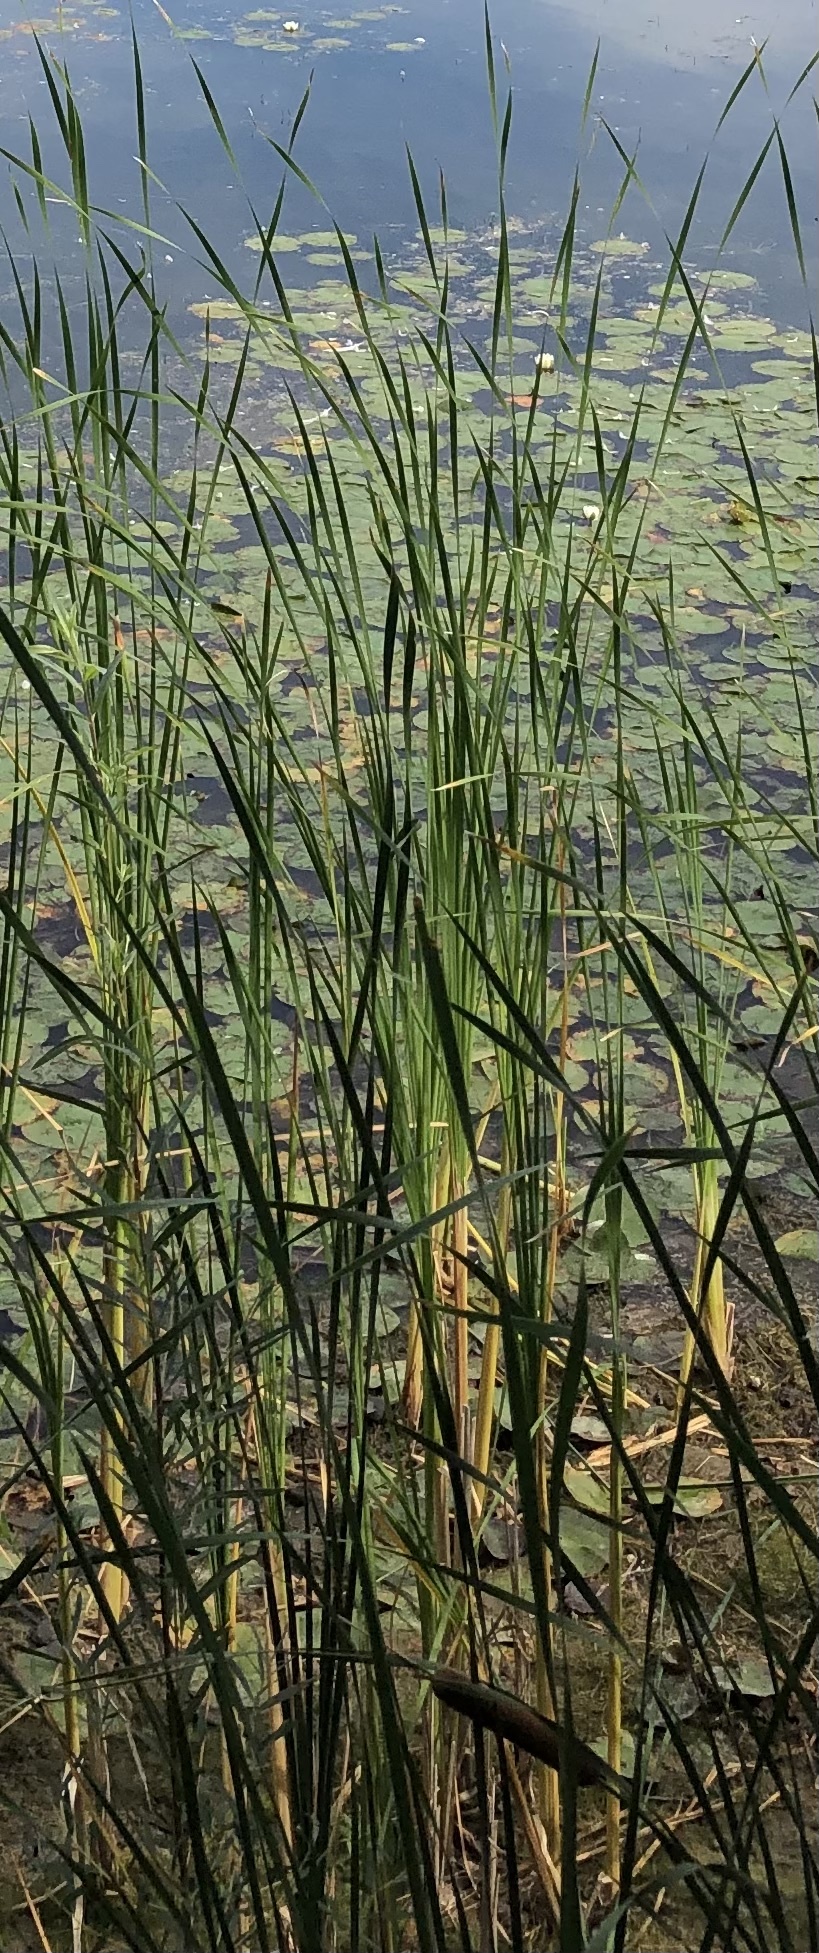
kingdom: Plantae
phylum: Tracheophyta
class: Liliopsida
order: Poales
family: Typhaceae
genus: Typha
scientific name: Typha angustifolia
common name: Lesser bulrush
